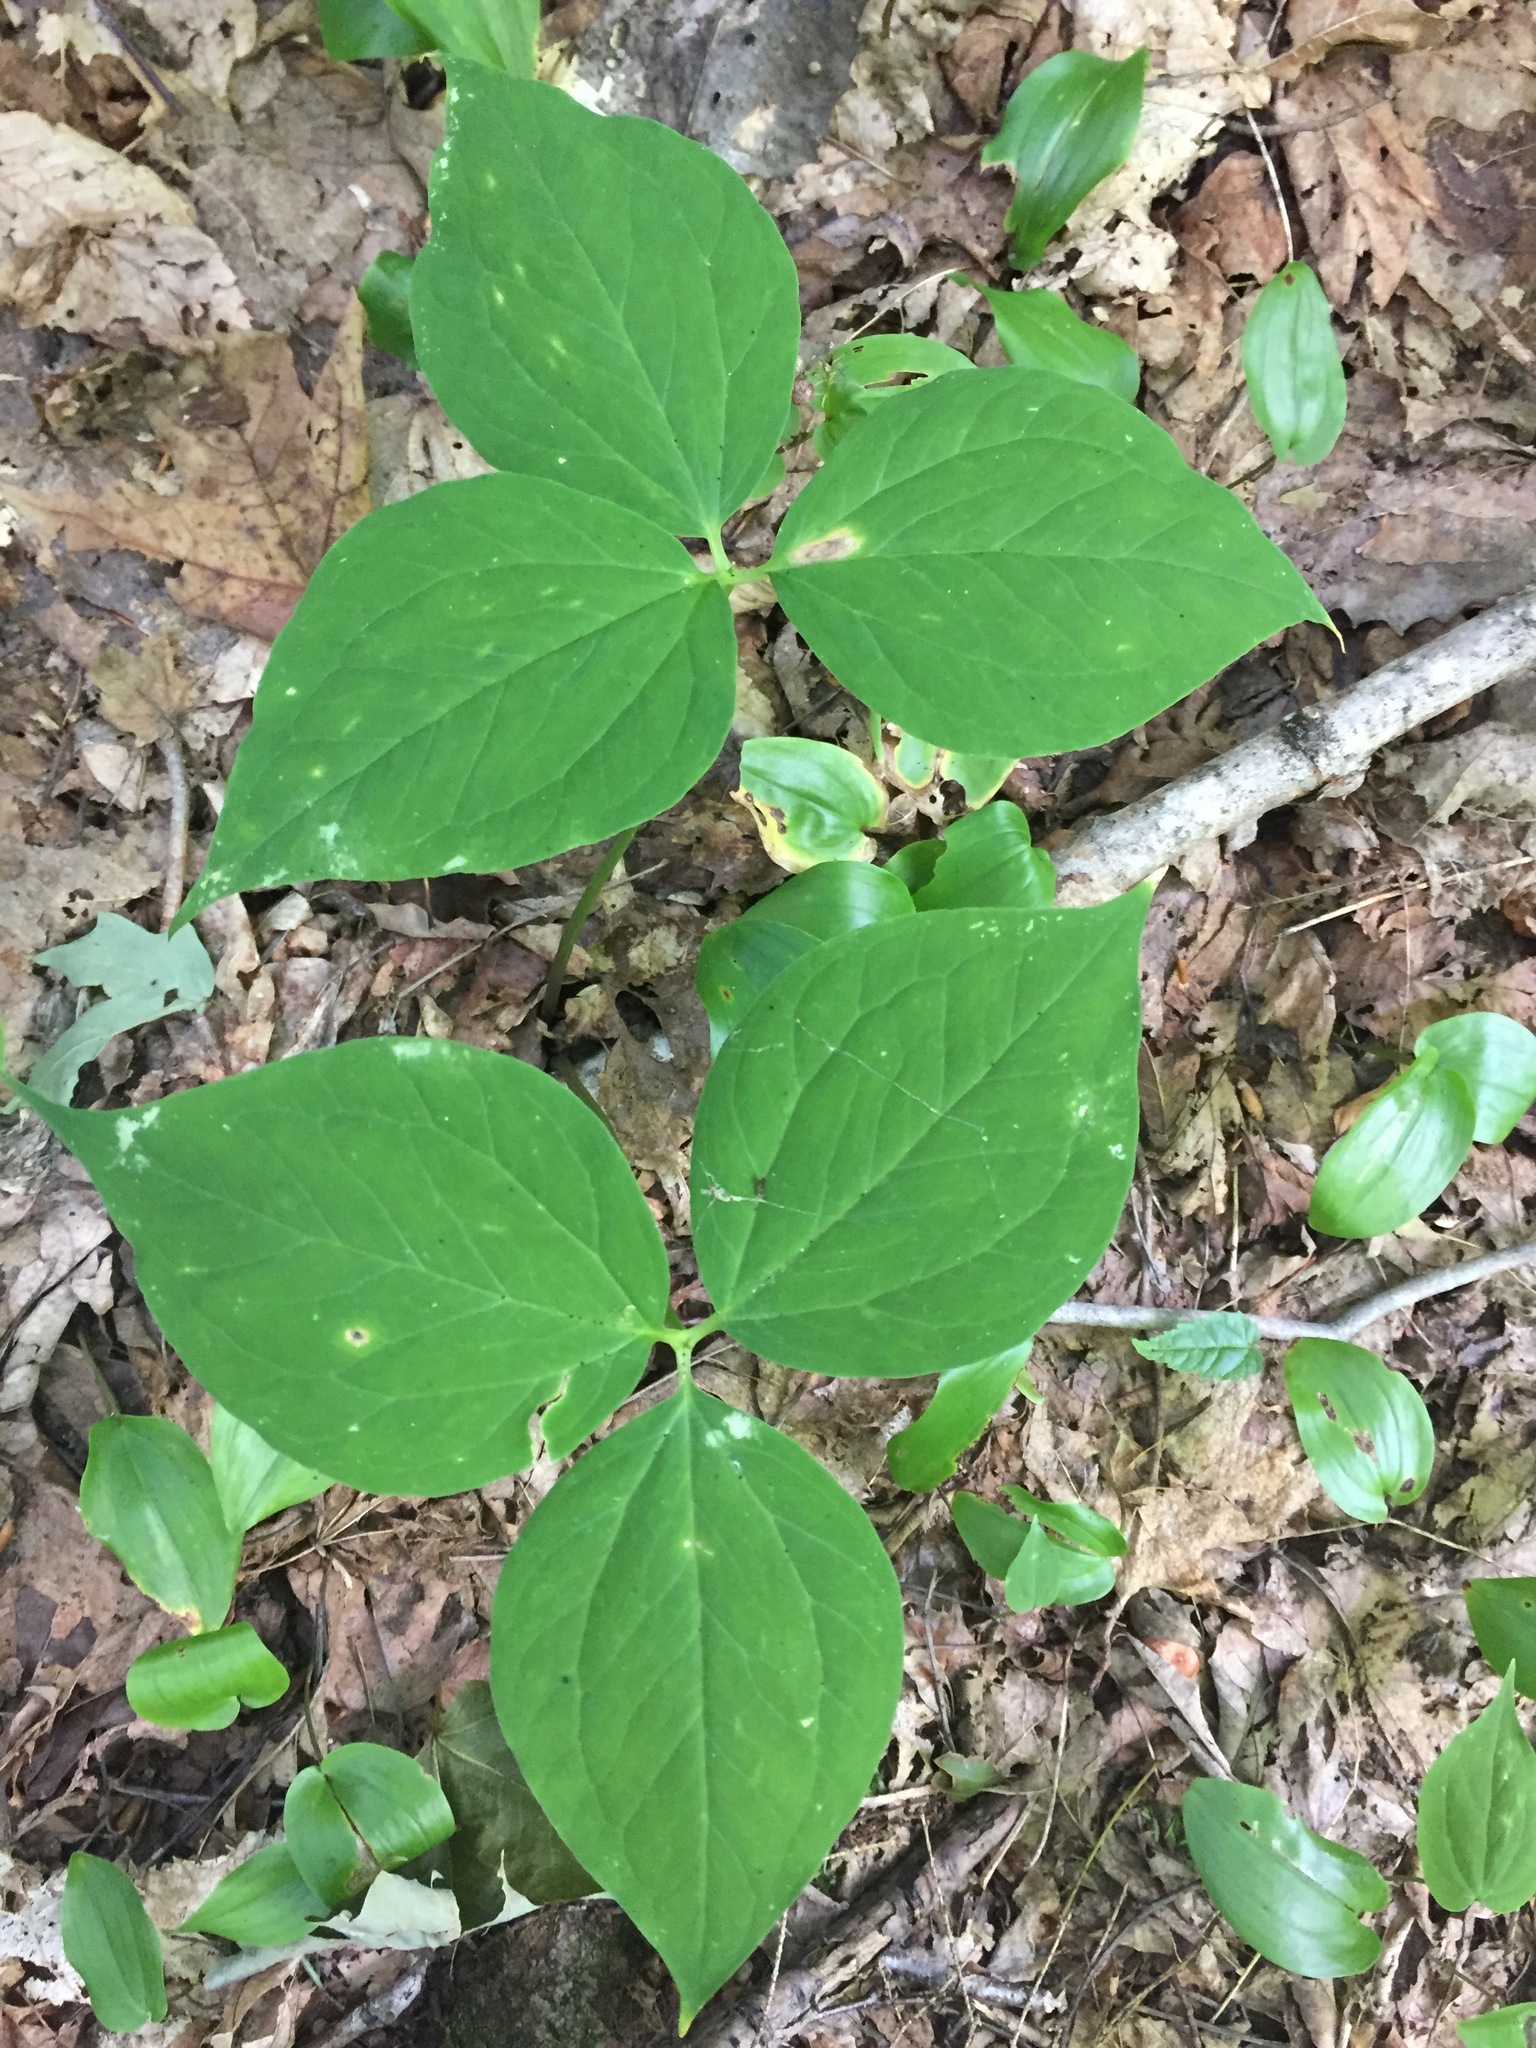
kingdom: Plantae
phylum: Tracheophyta
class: Liliopsida
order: Liliales
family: Melanthiaceae
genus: Trillium
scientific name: Trillium undulatum
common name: Paint trillium
